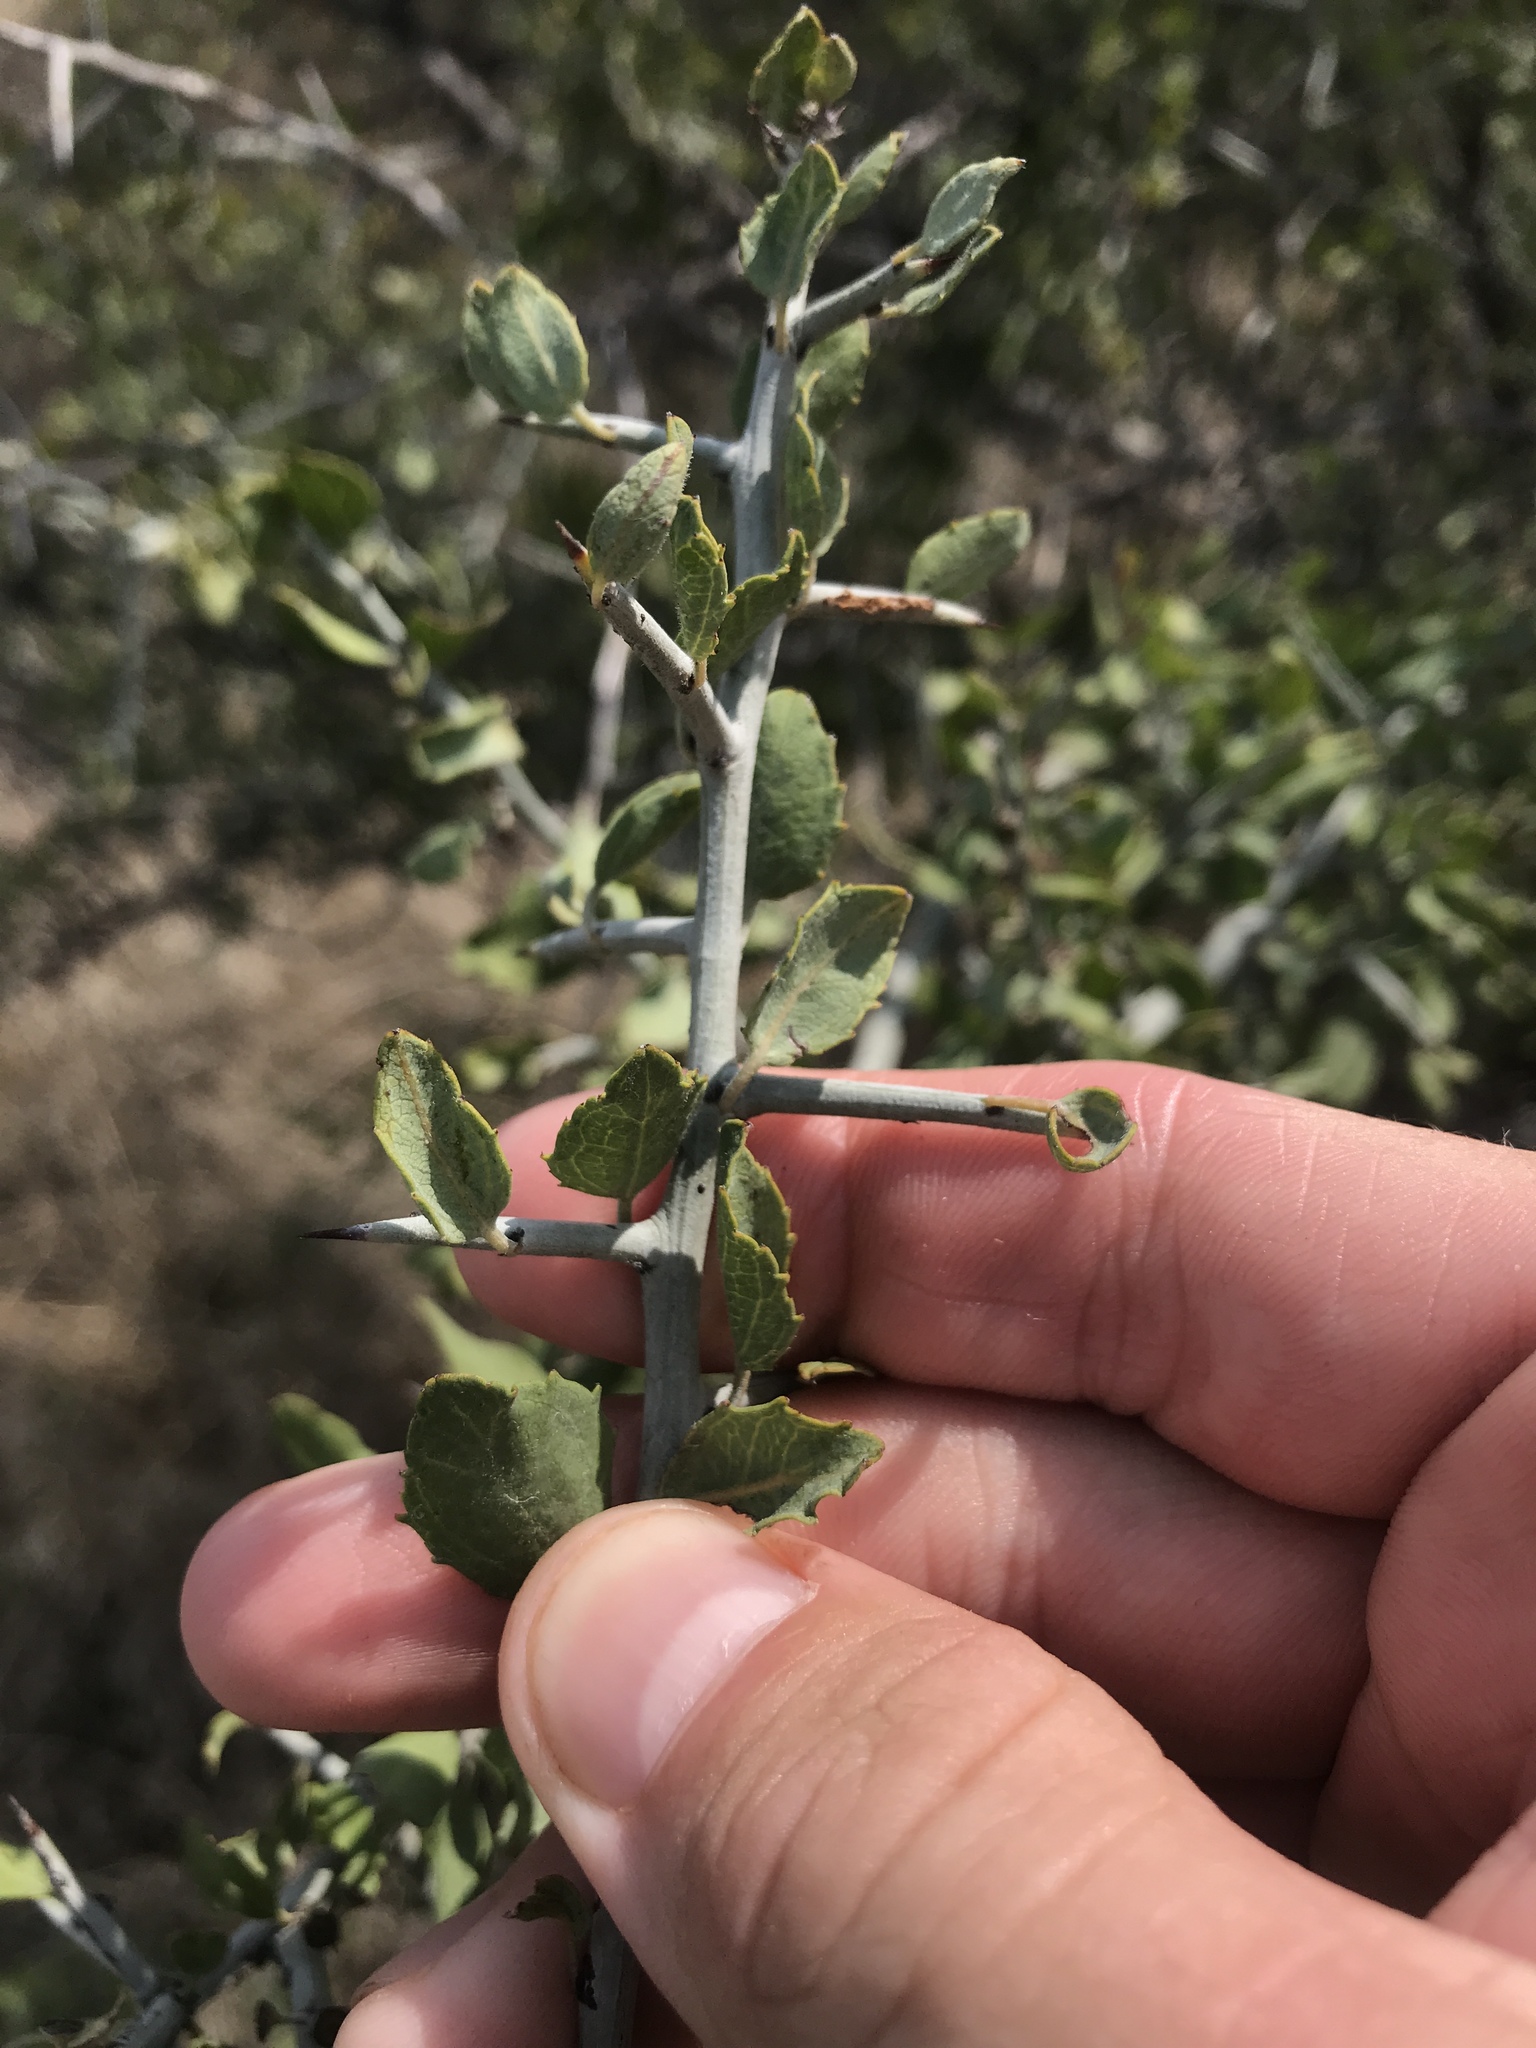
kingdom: Plantae
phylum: Tracheophyta
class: Magnoliopsida
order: Rosales
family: Rhamnaceae
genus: Sarcomphalus
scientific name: Sarcomphalus obtusifolius
